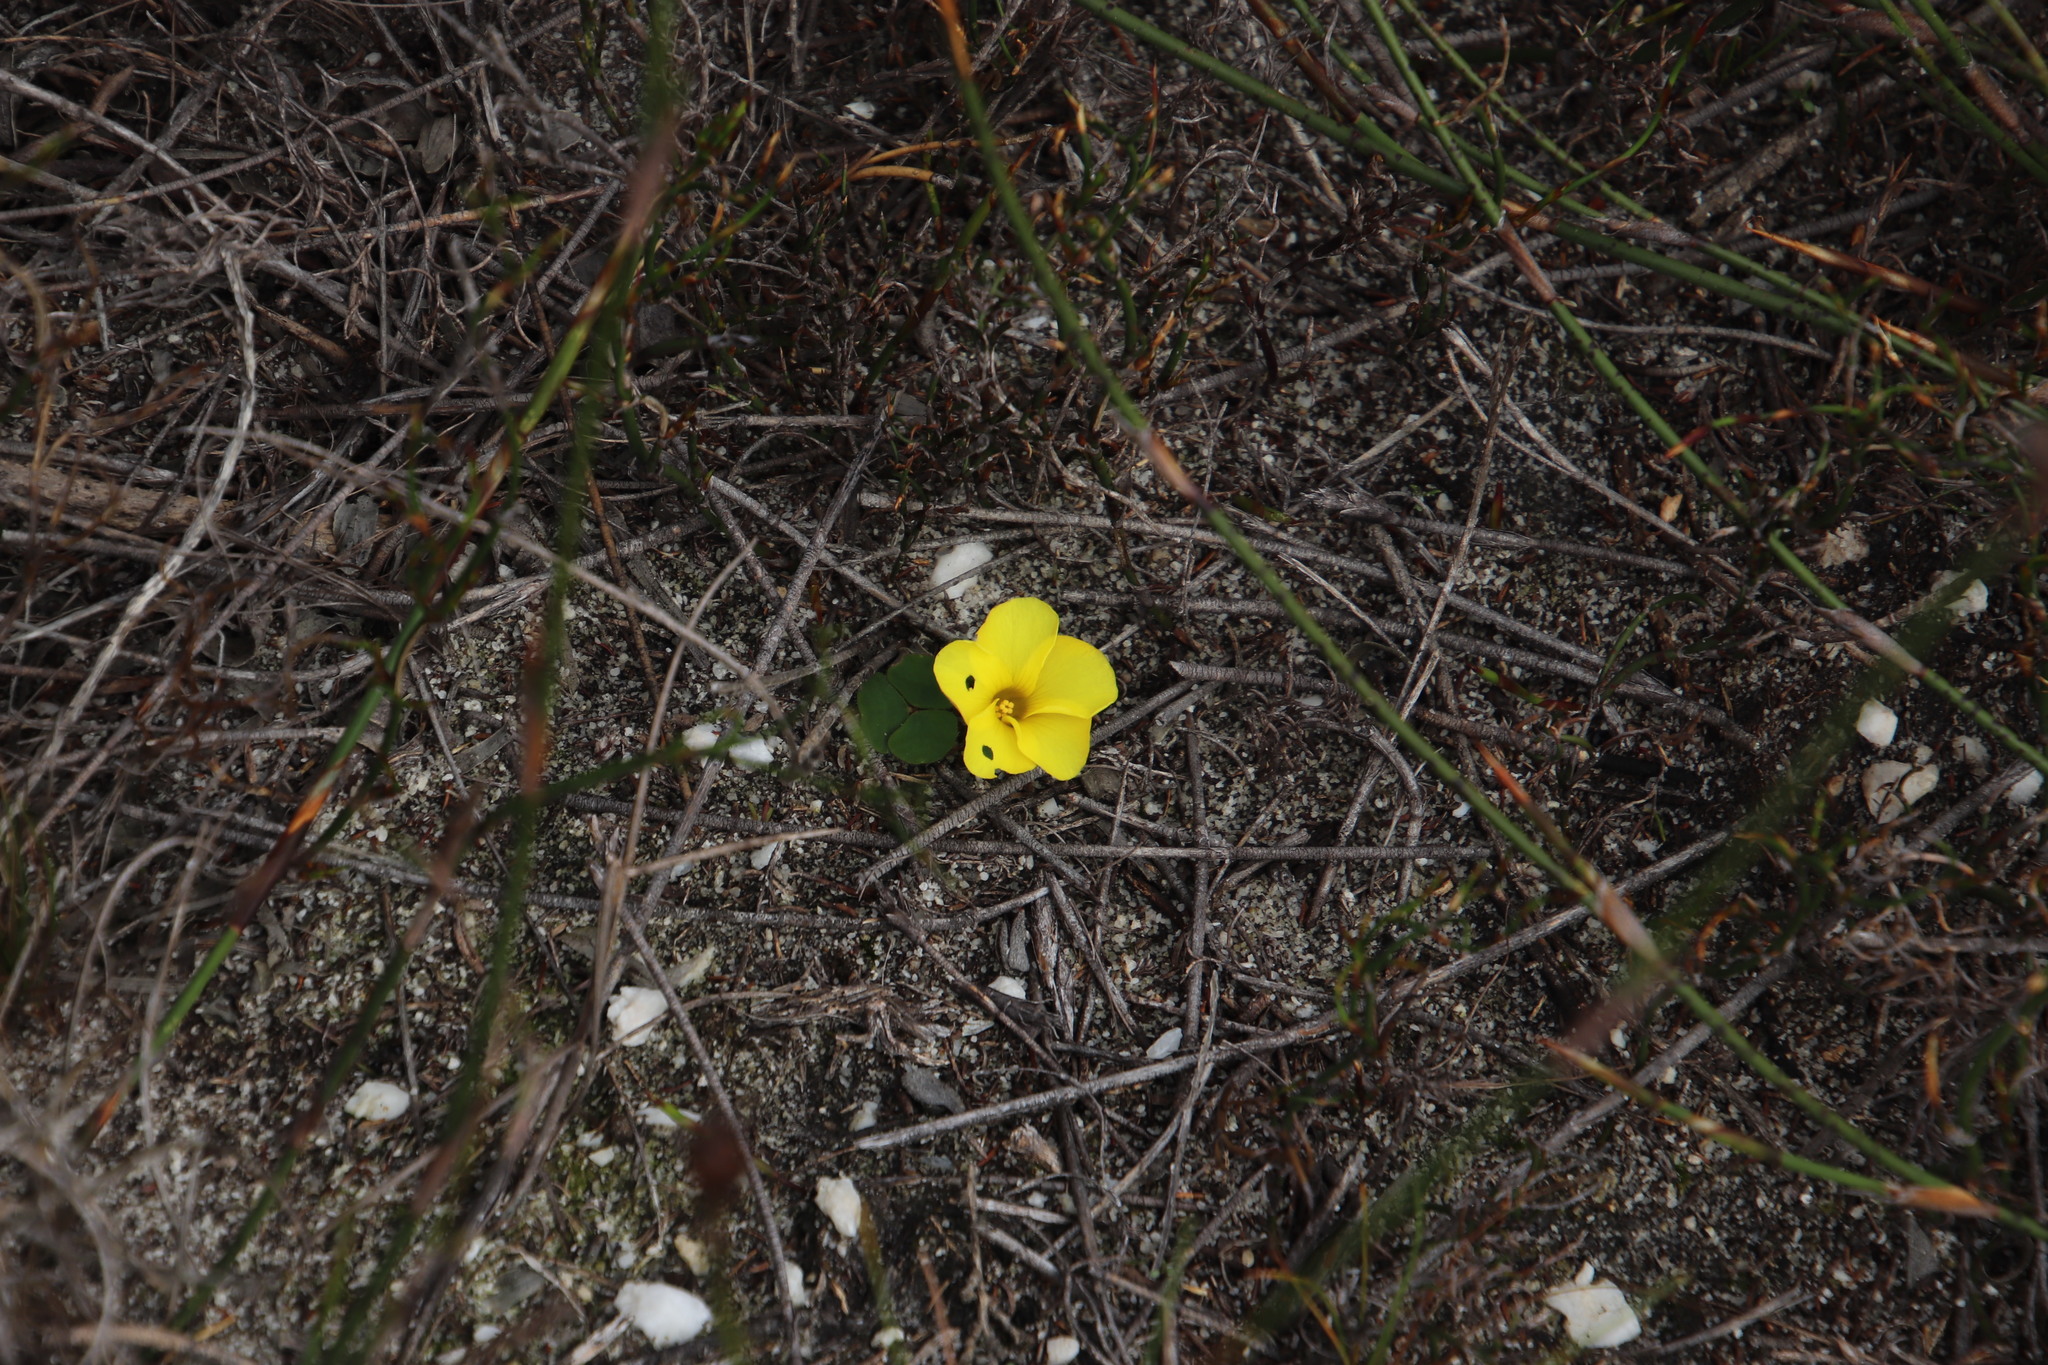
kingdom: Plantae
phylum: Tracheophyta
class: Magnoliopsida
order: Oxalidales
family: Oxalidaceae
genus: Oxalis
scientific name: Oxalis luteola
